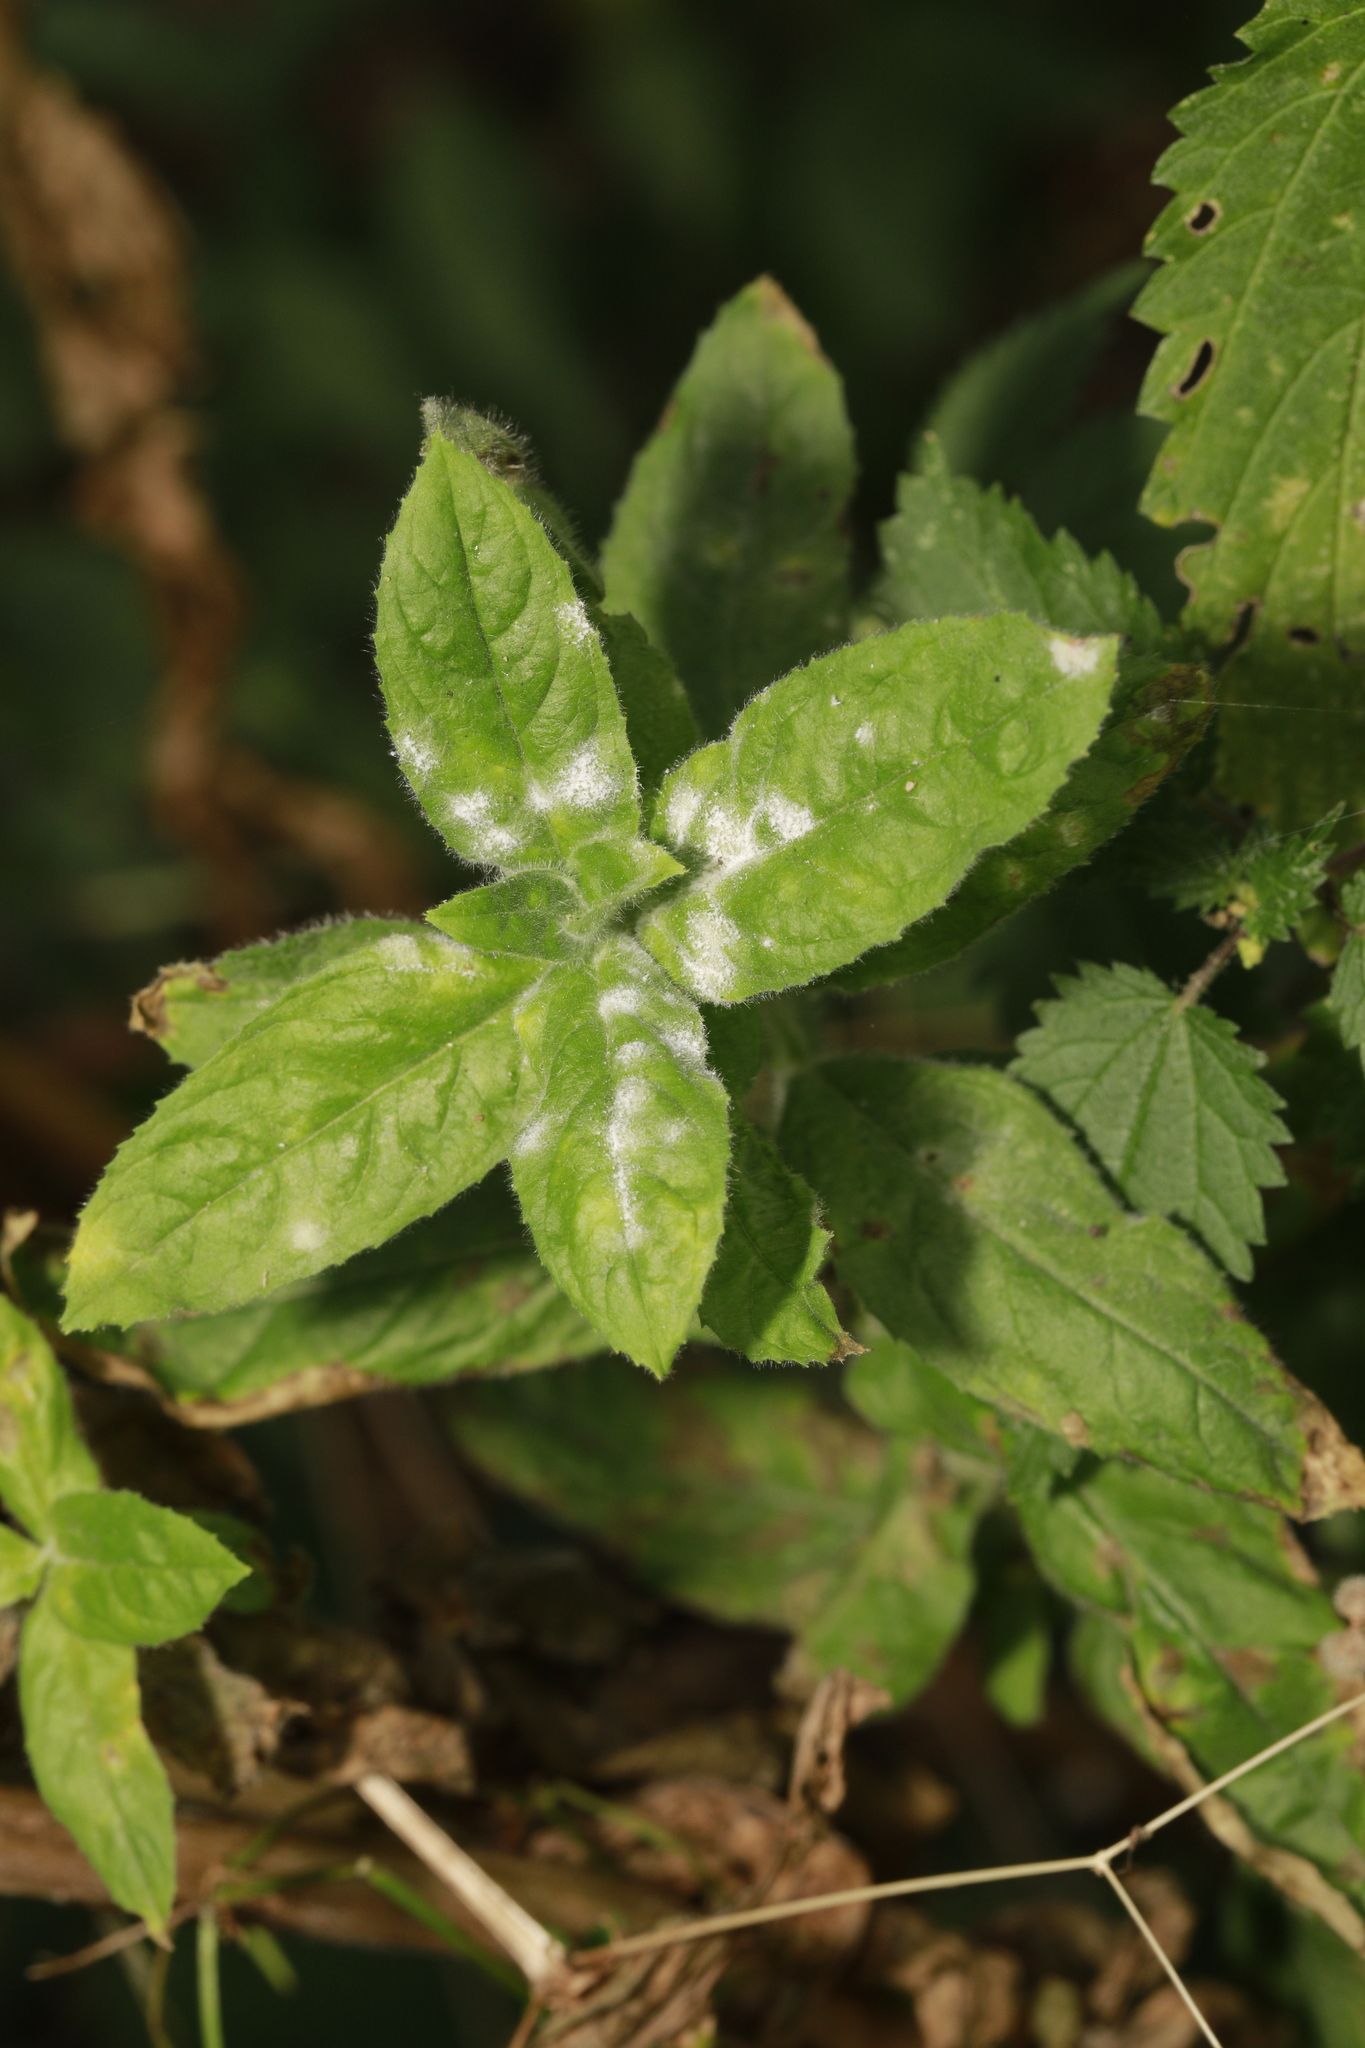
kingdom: Fungi
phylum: Ascomycota
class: Leotiomycetes
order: Helotiales
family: Erysiphaceae
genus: Podosphaera
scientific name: Podosphaera epilobii
